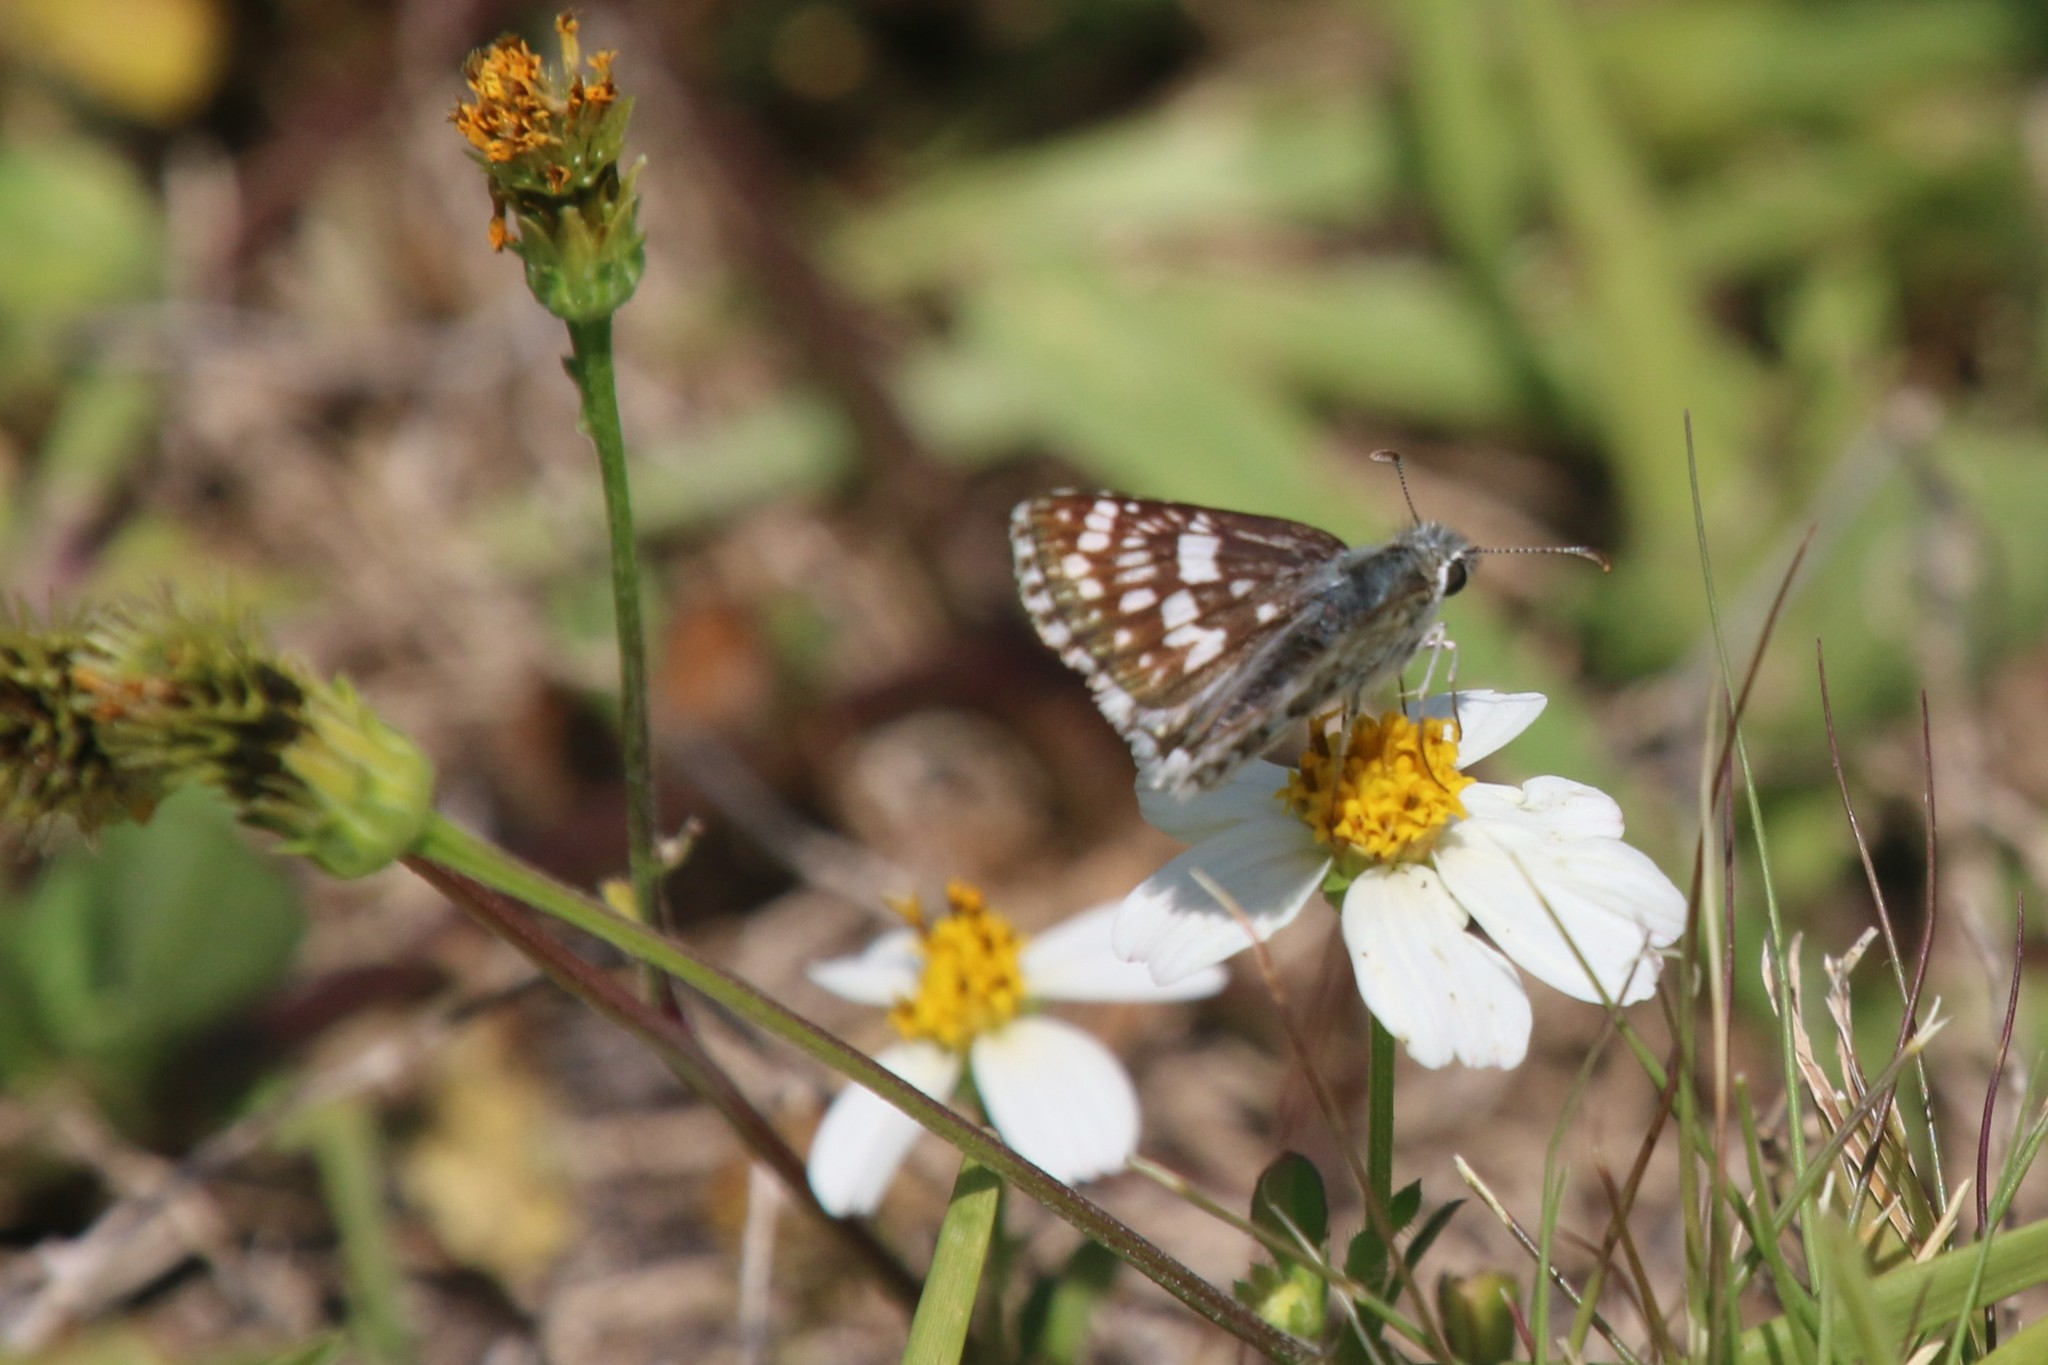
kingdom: Animalia
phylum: Arthropoda
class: Insecta
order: Lepidoptera
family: Hesperiidae
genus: Burnsius
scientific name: Burnsius albezens
